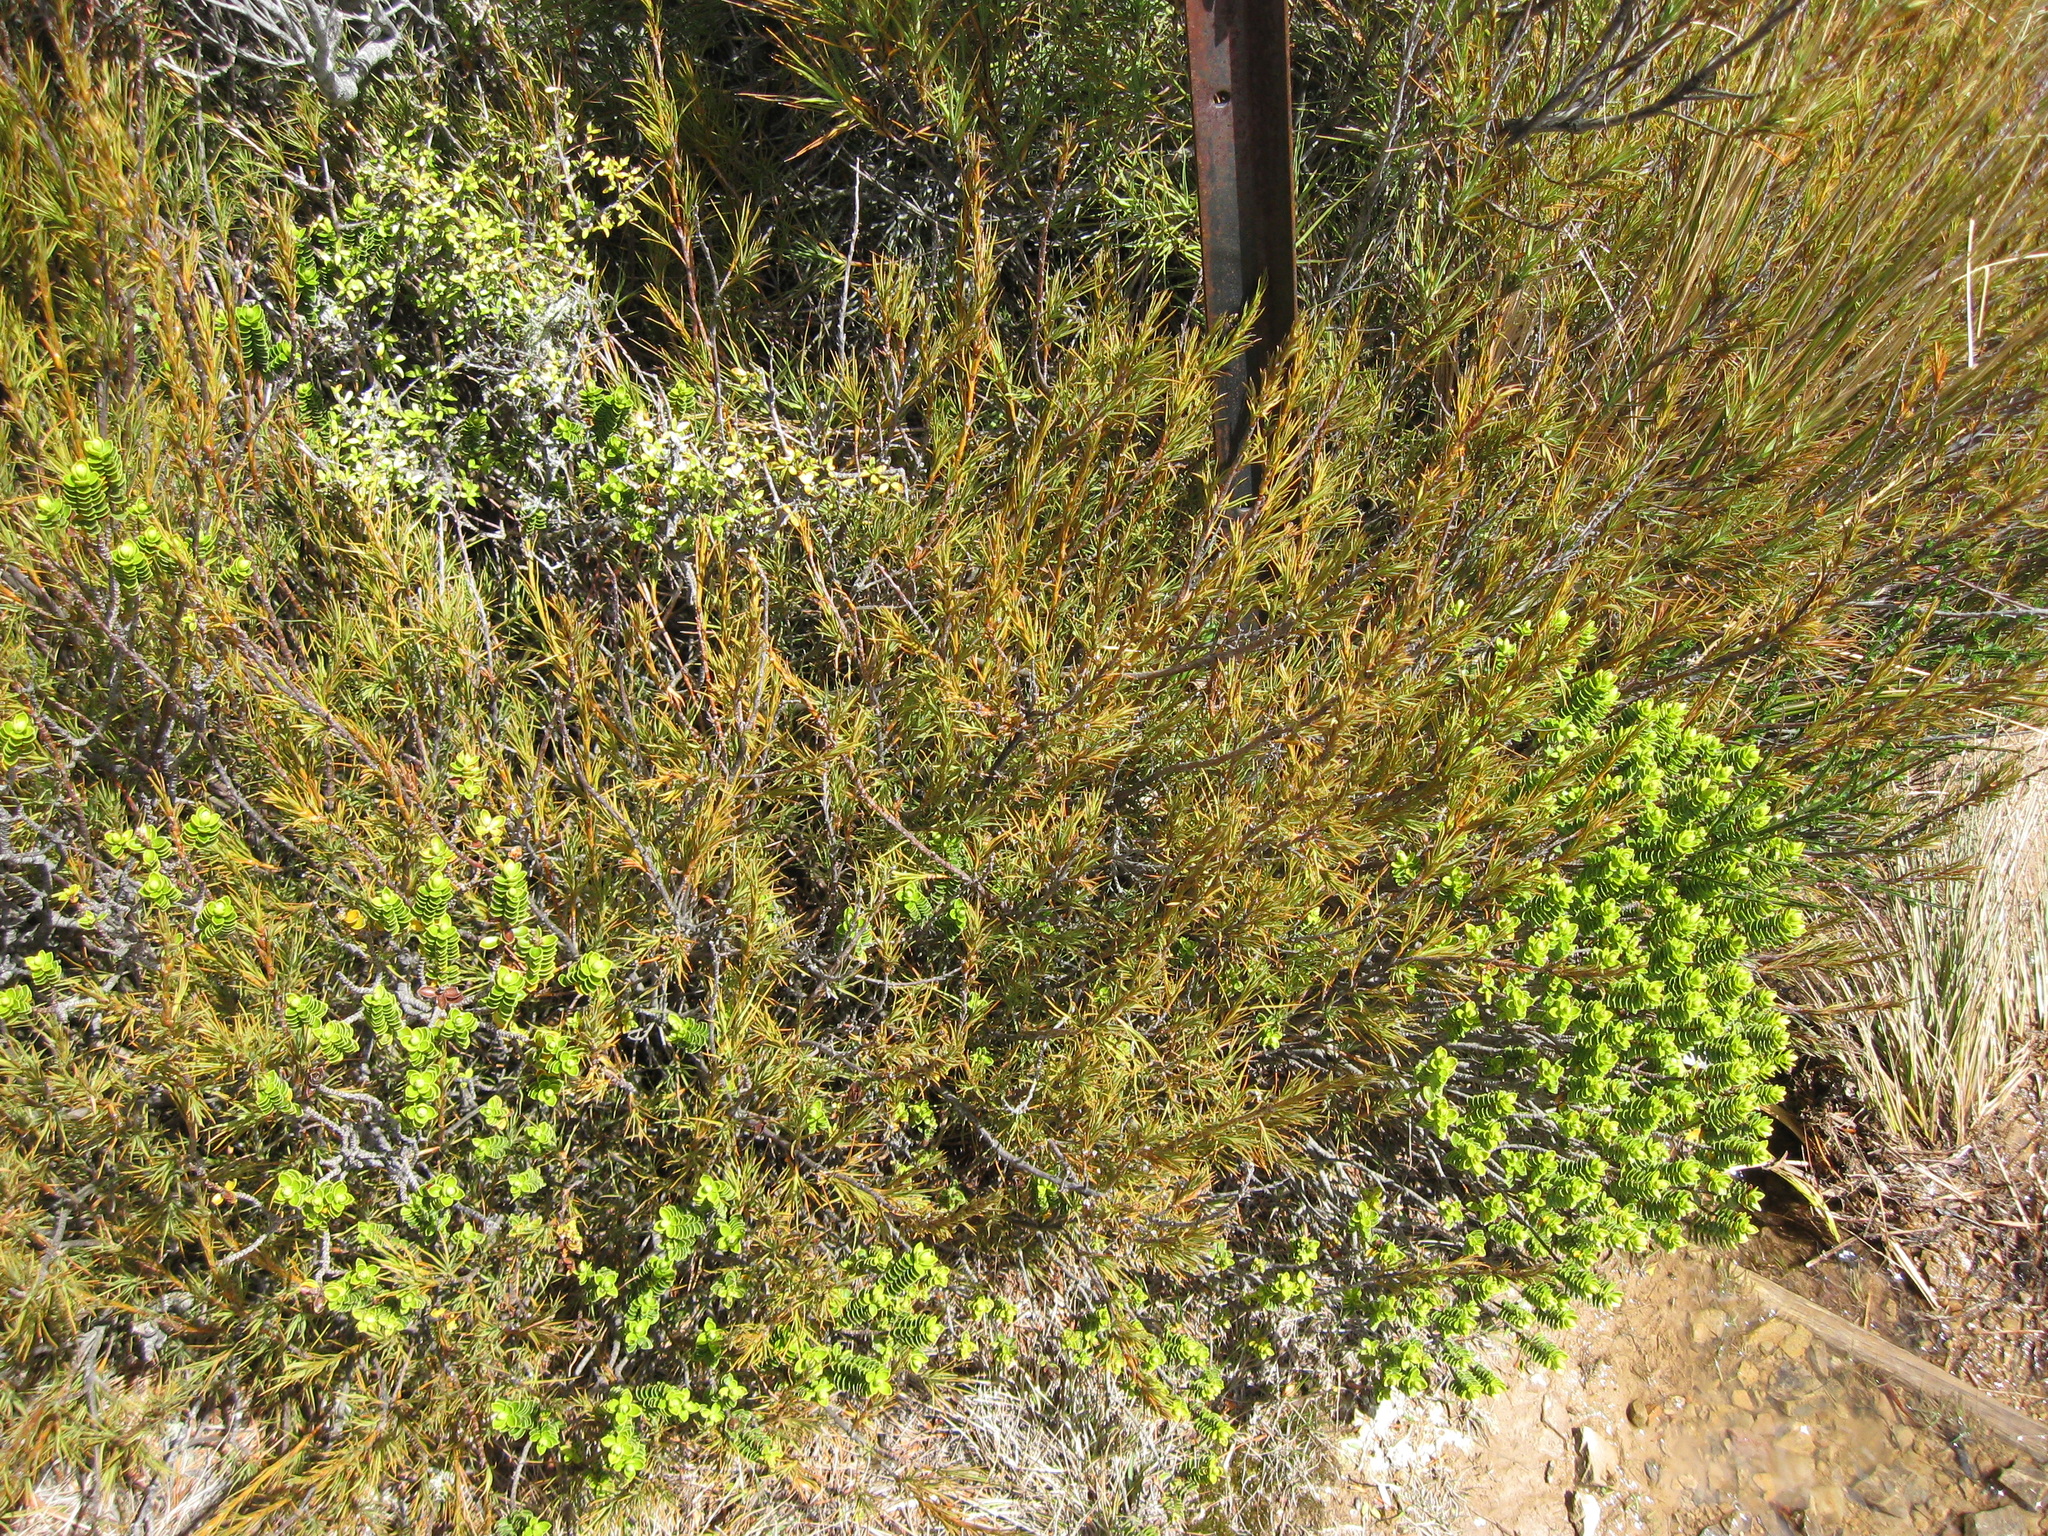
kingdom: Plantae
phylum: Tracheophyta
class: Magnoliopsida
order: Ericales
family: Ericaceae
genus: Dracophyllum
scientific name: Dracophyllum rosmarinifolium
